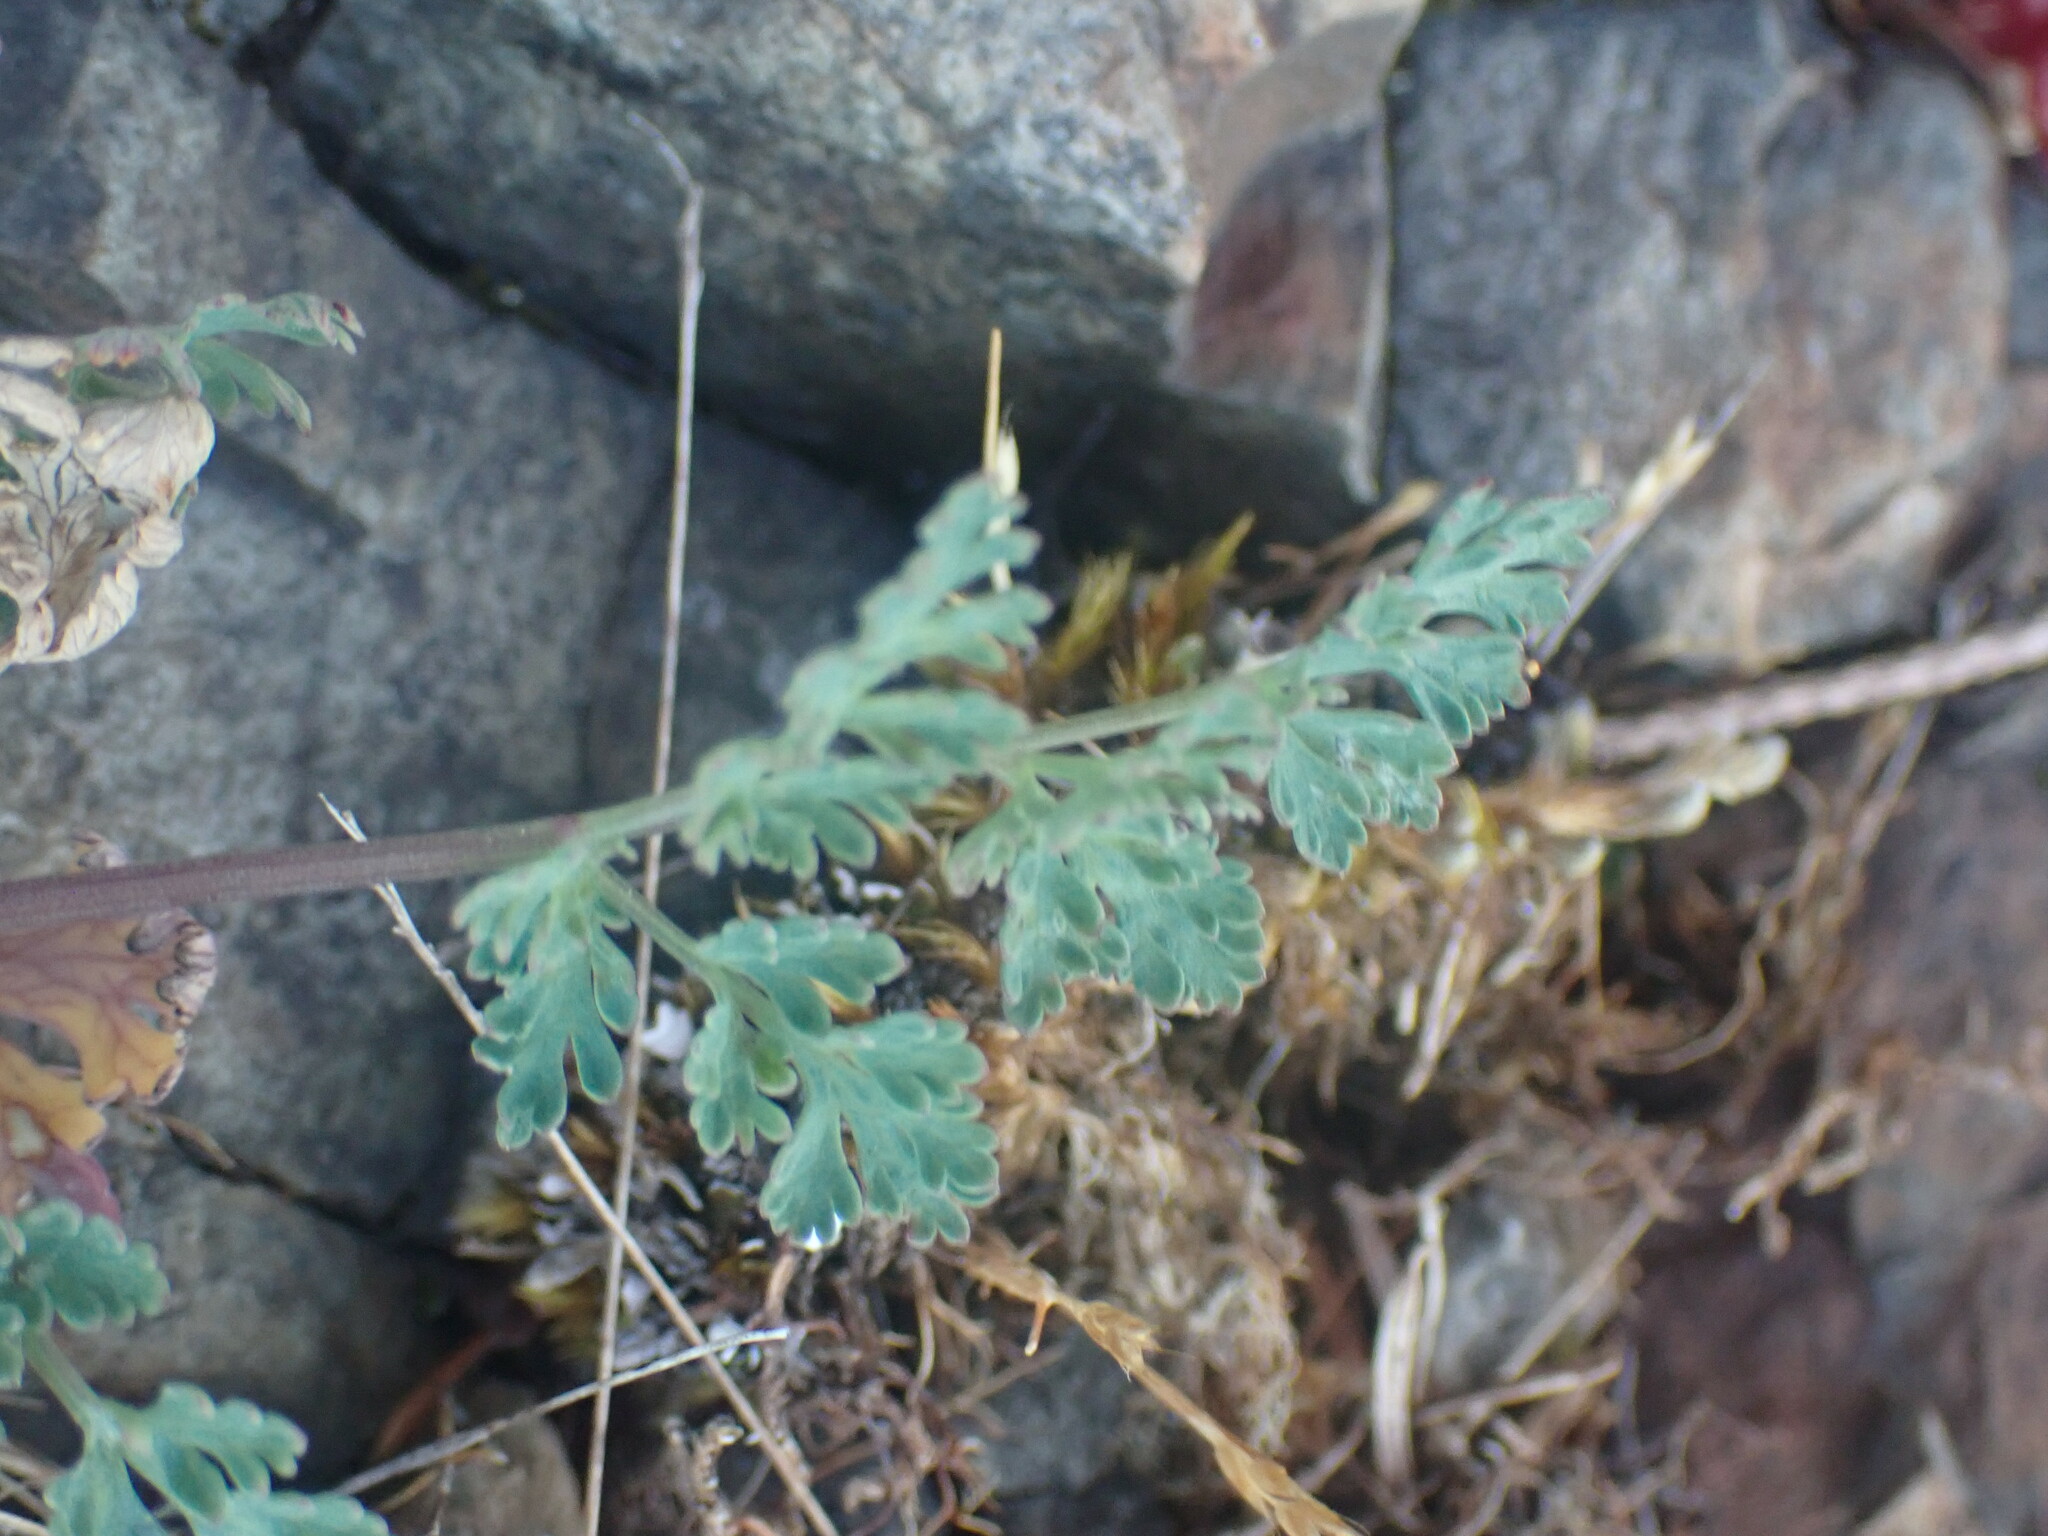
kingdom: Plantae
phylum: Tracheophyta
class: Magnoliopsida
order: Apiales
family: Apiaceae
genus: Lomatium
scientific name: Lomatium martindalei
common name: Cascade desert-parsley
